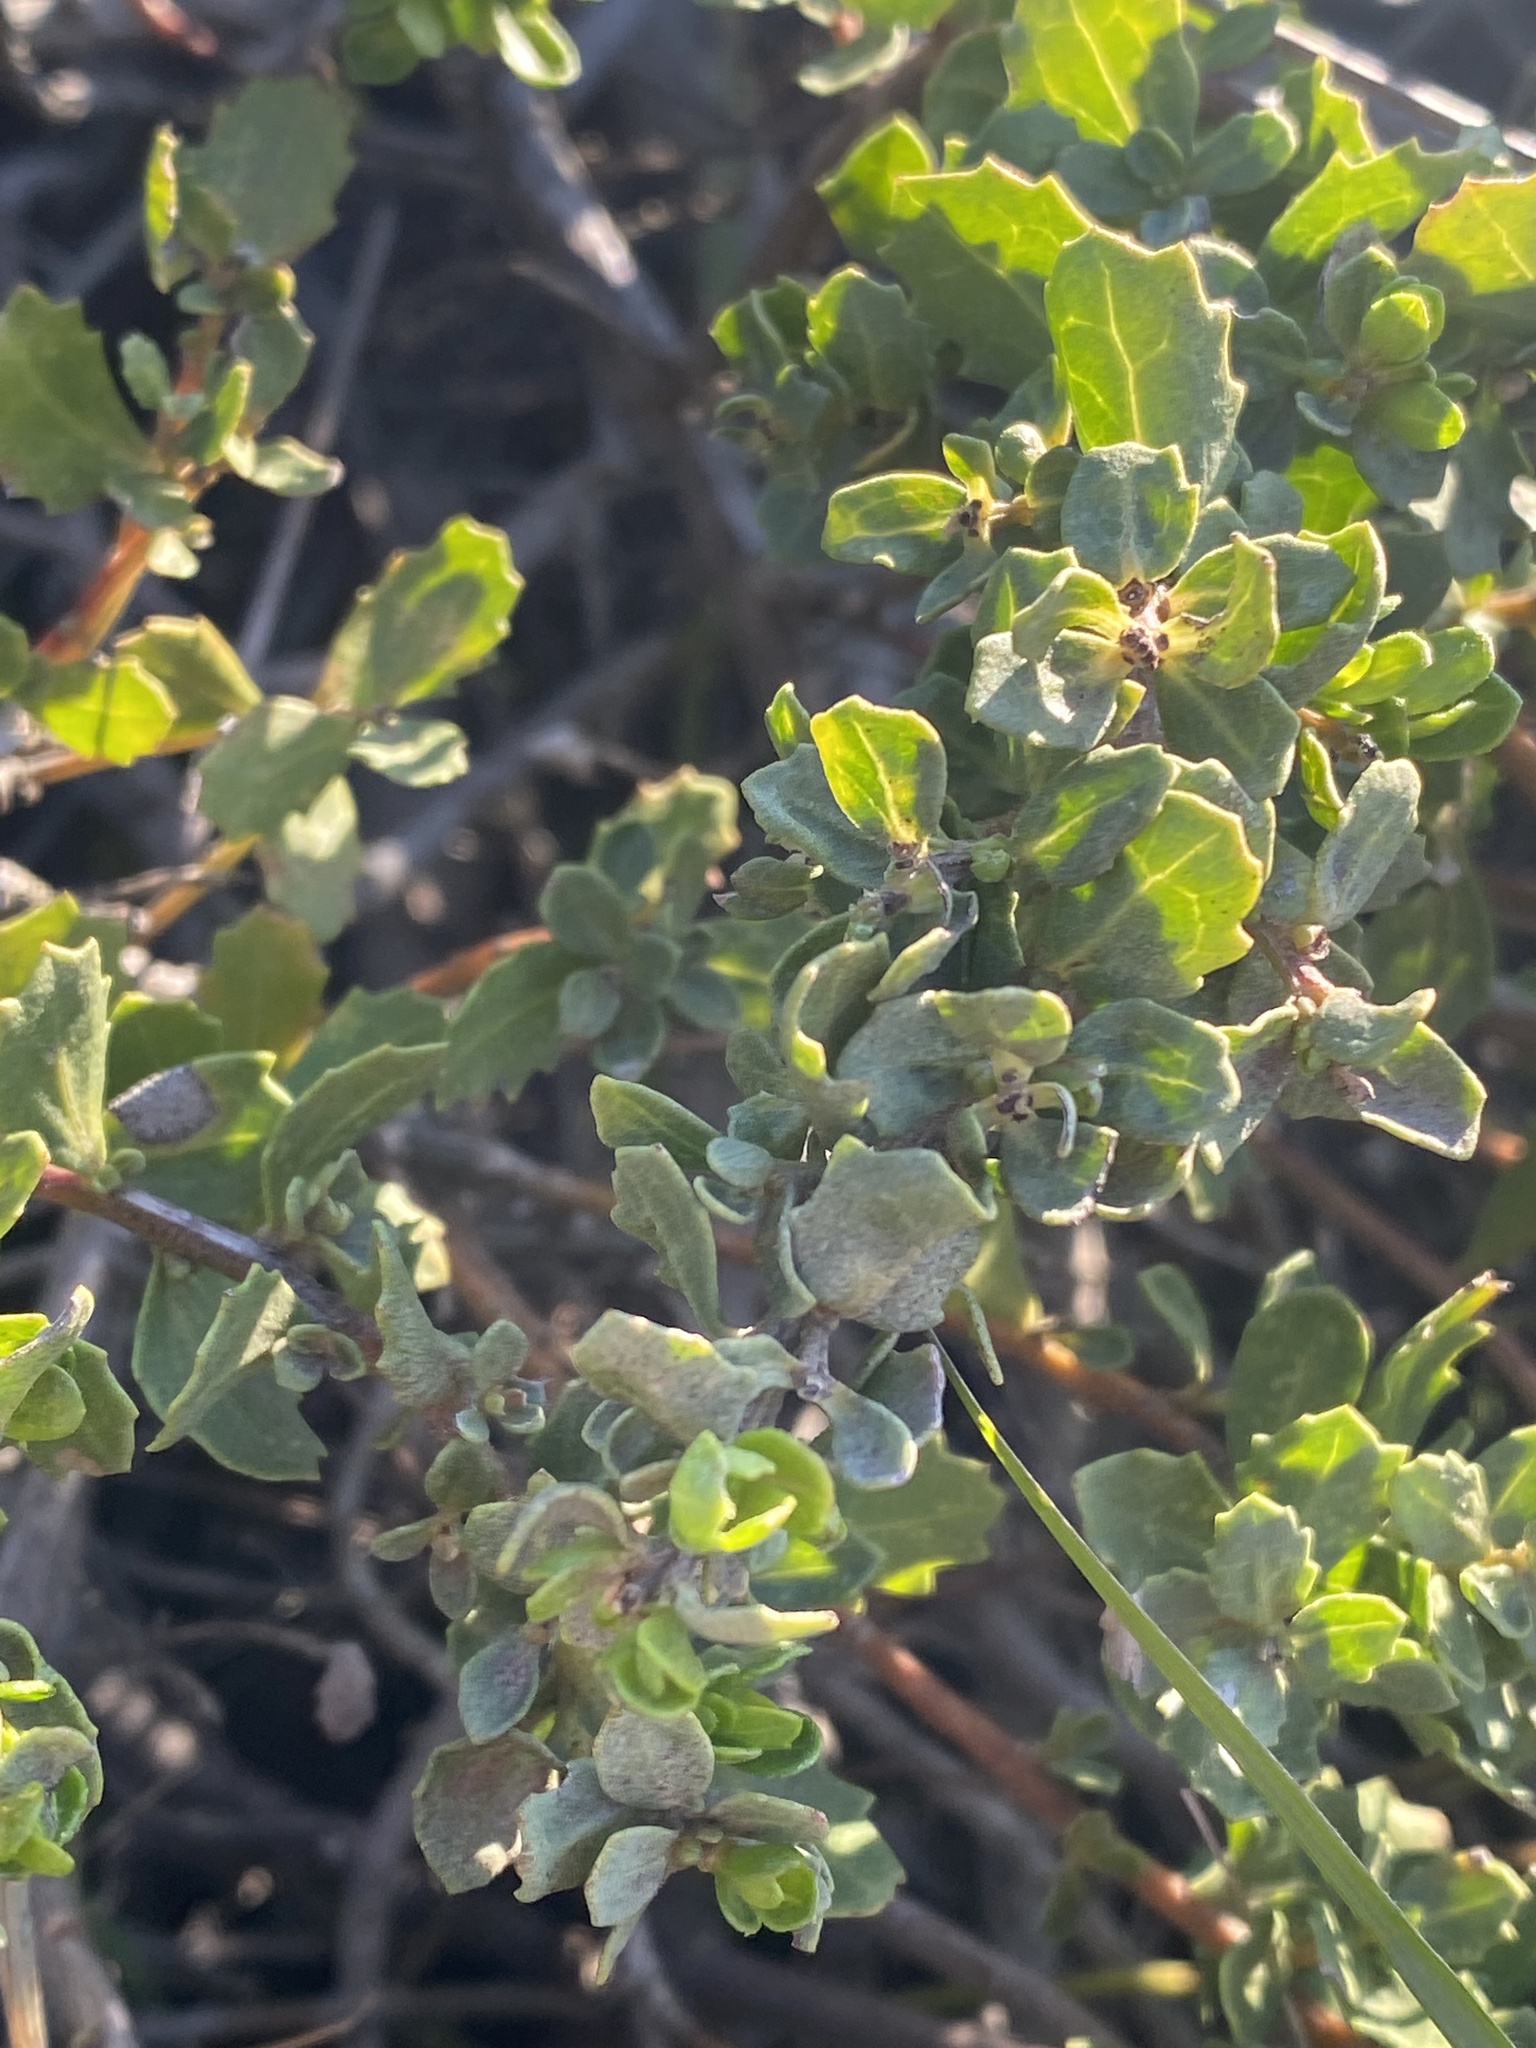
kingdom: Plantae
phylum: Tracheophyta
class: Magnoliopsida
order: Asterales
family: Asteraceae
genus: Baccharis
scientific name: Baccharis pilularis
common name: Coyotebrush
